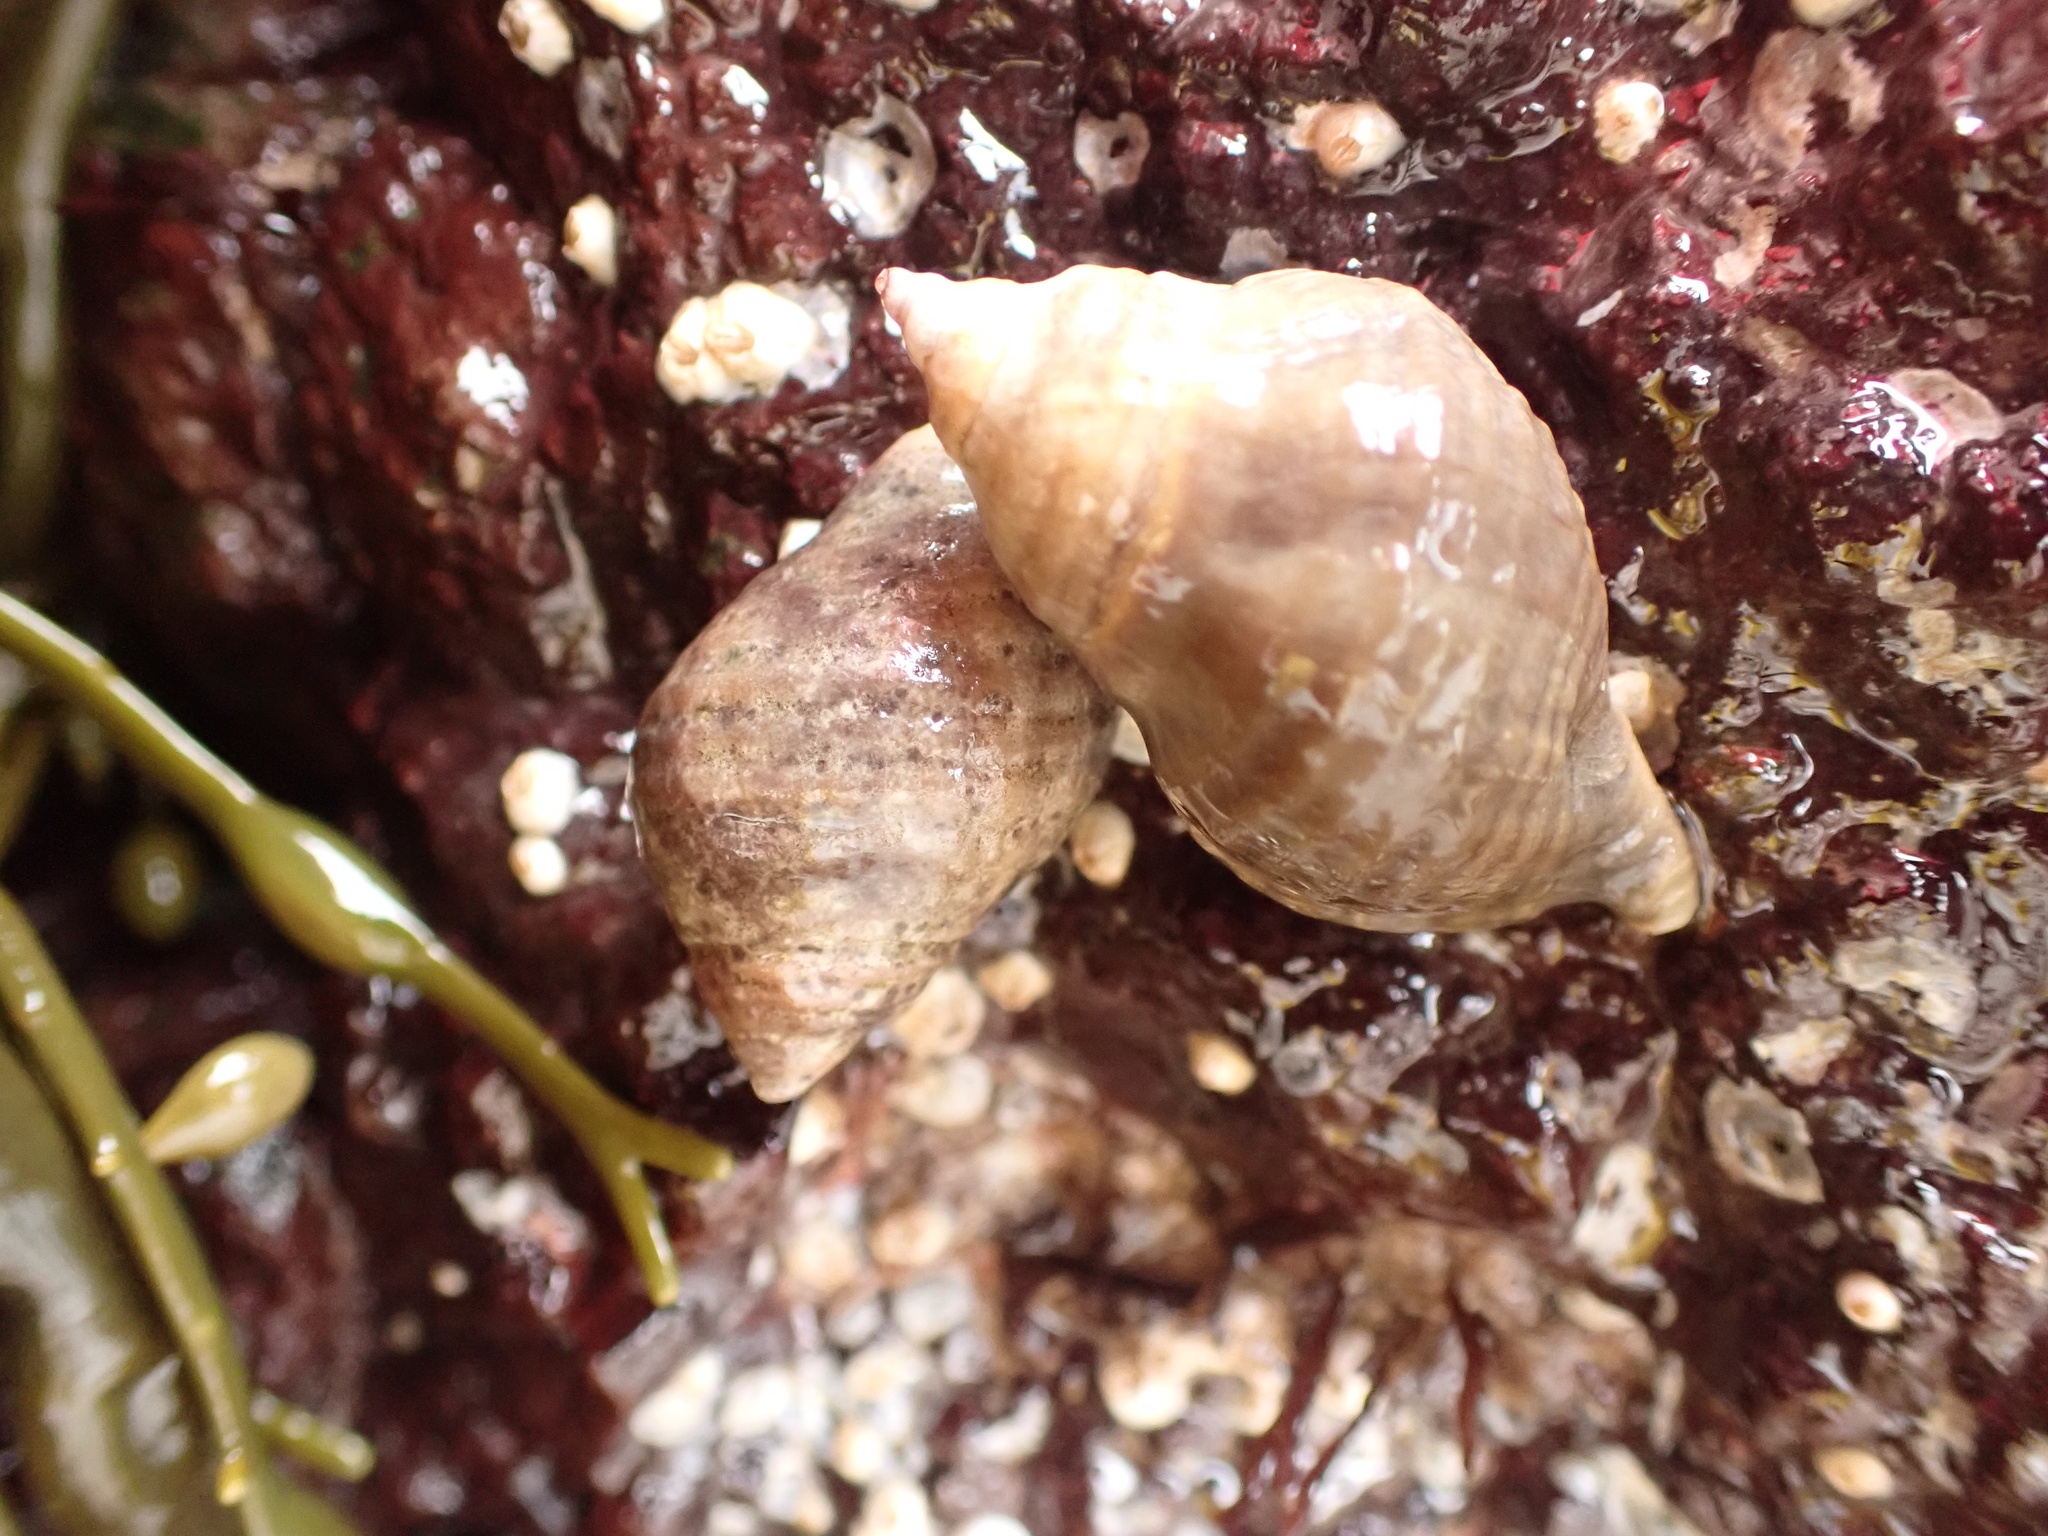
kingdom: Animalia
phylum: Mollusca
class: Gastropoda
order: Neogastropoda
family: Muricidae
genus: Nucella
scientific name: Nucella lapillus
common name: Dog whelk
